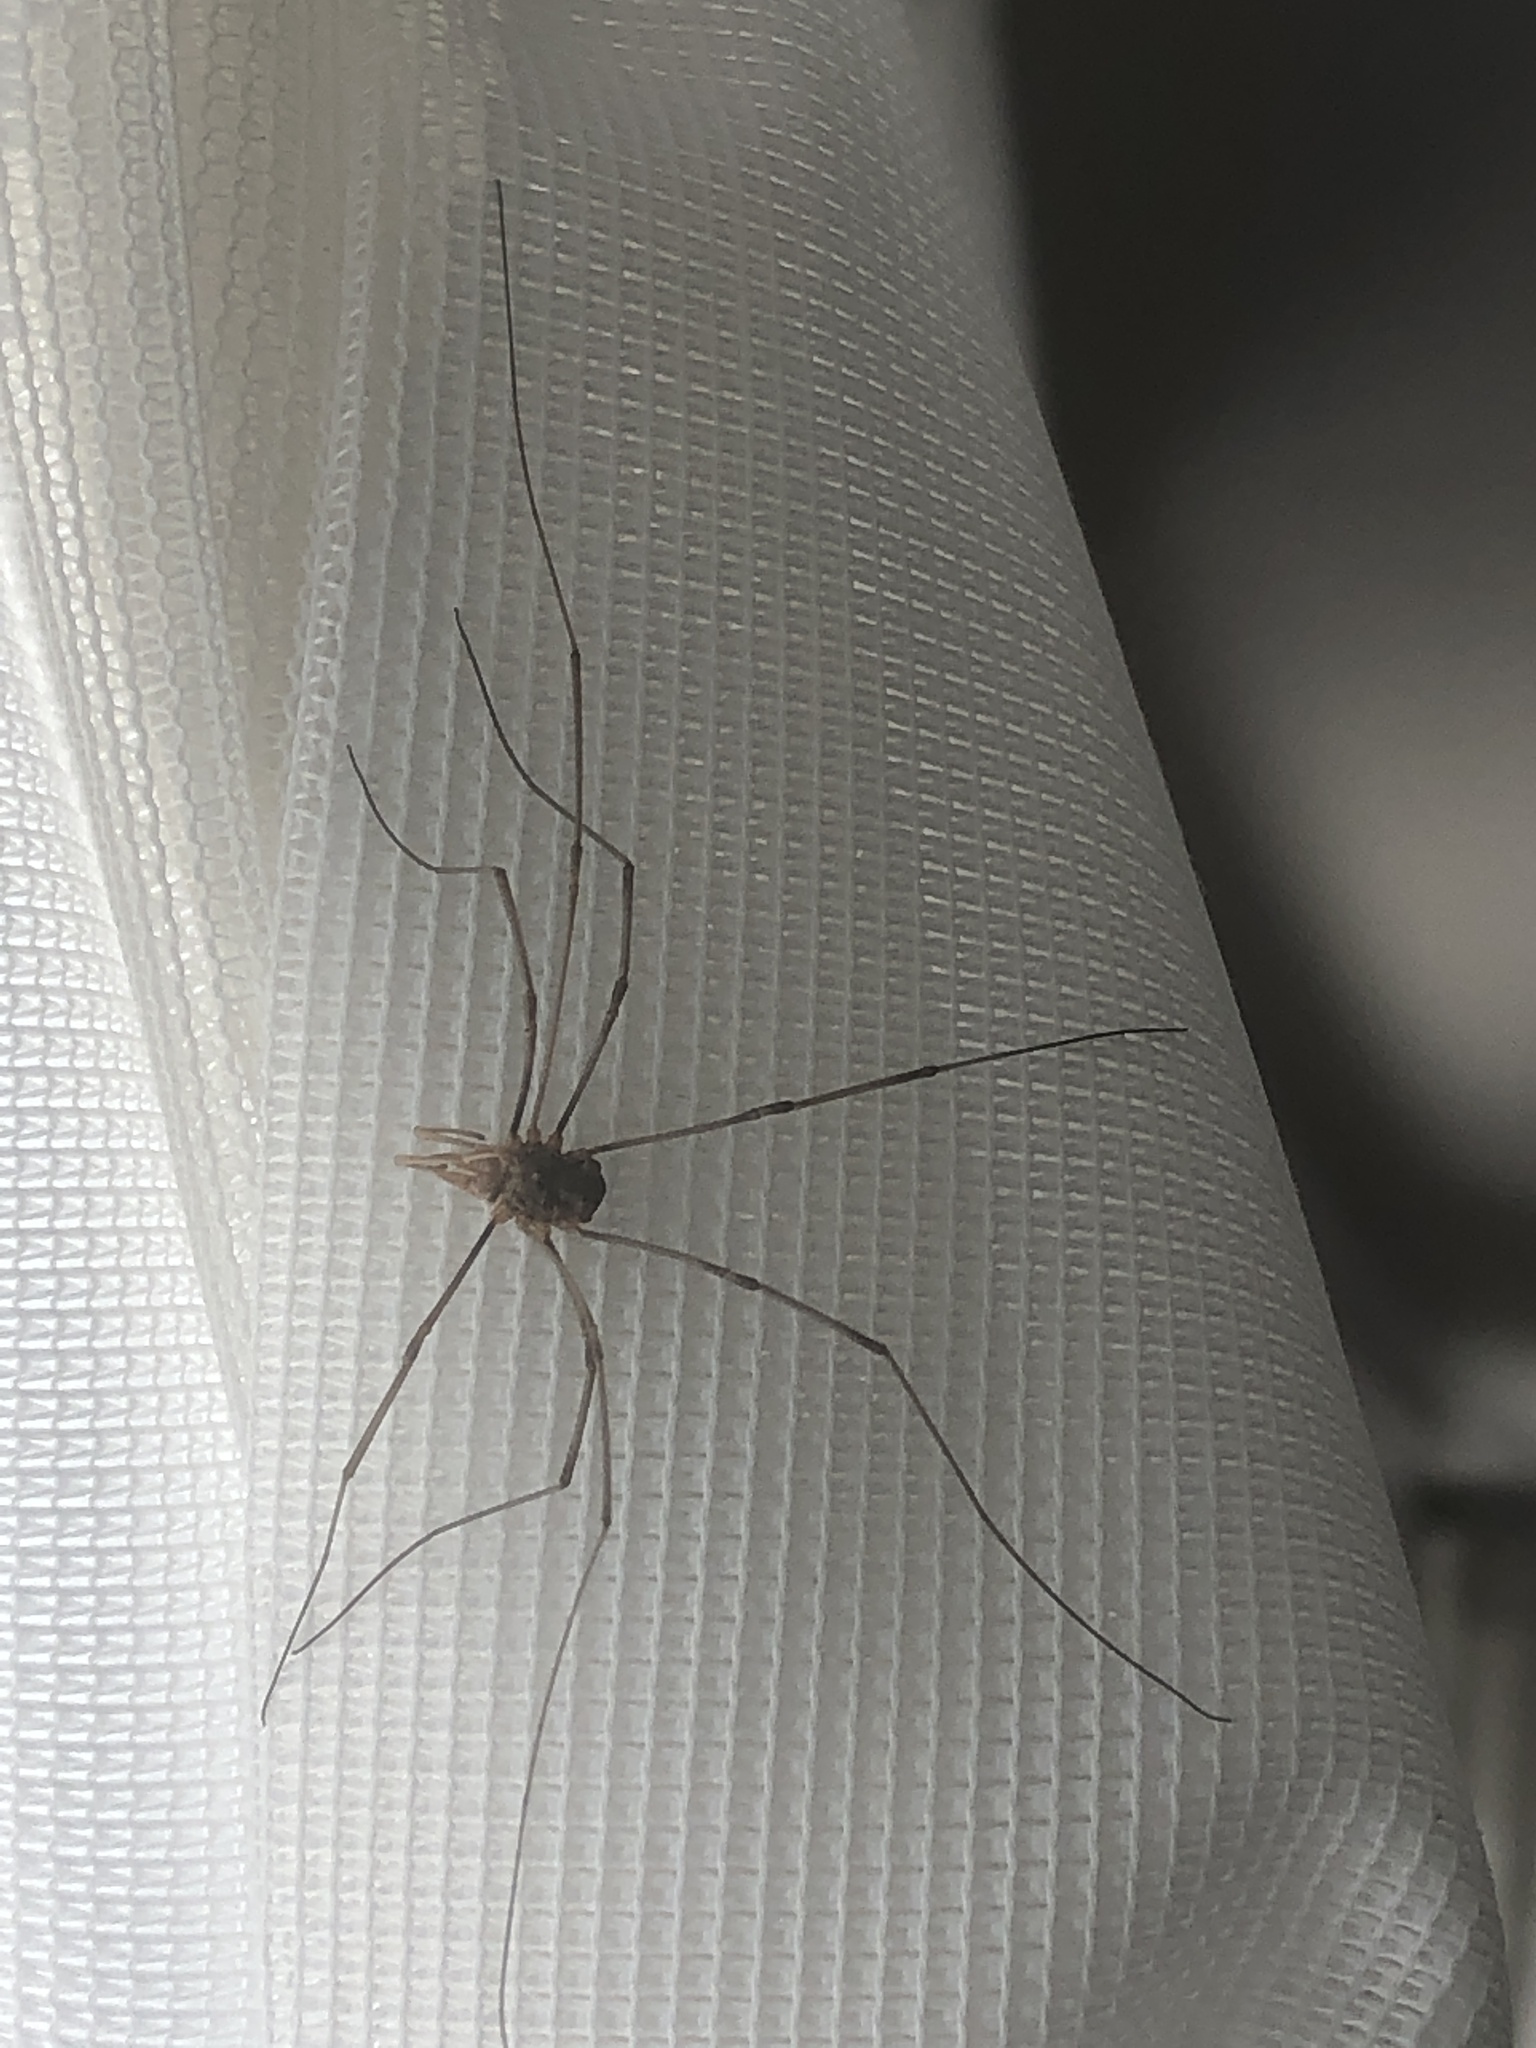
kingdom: Animalia
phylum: Arthropoda
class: Arachnida
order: Opiliones
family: Phalangiidae
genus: Phalangium
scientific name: Phalangium opilio
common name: Daddy longleg
